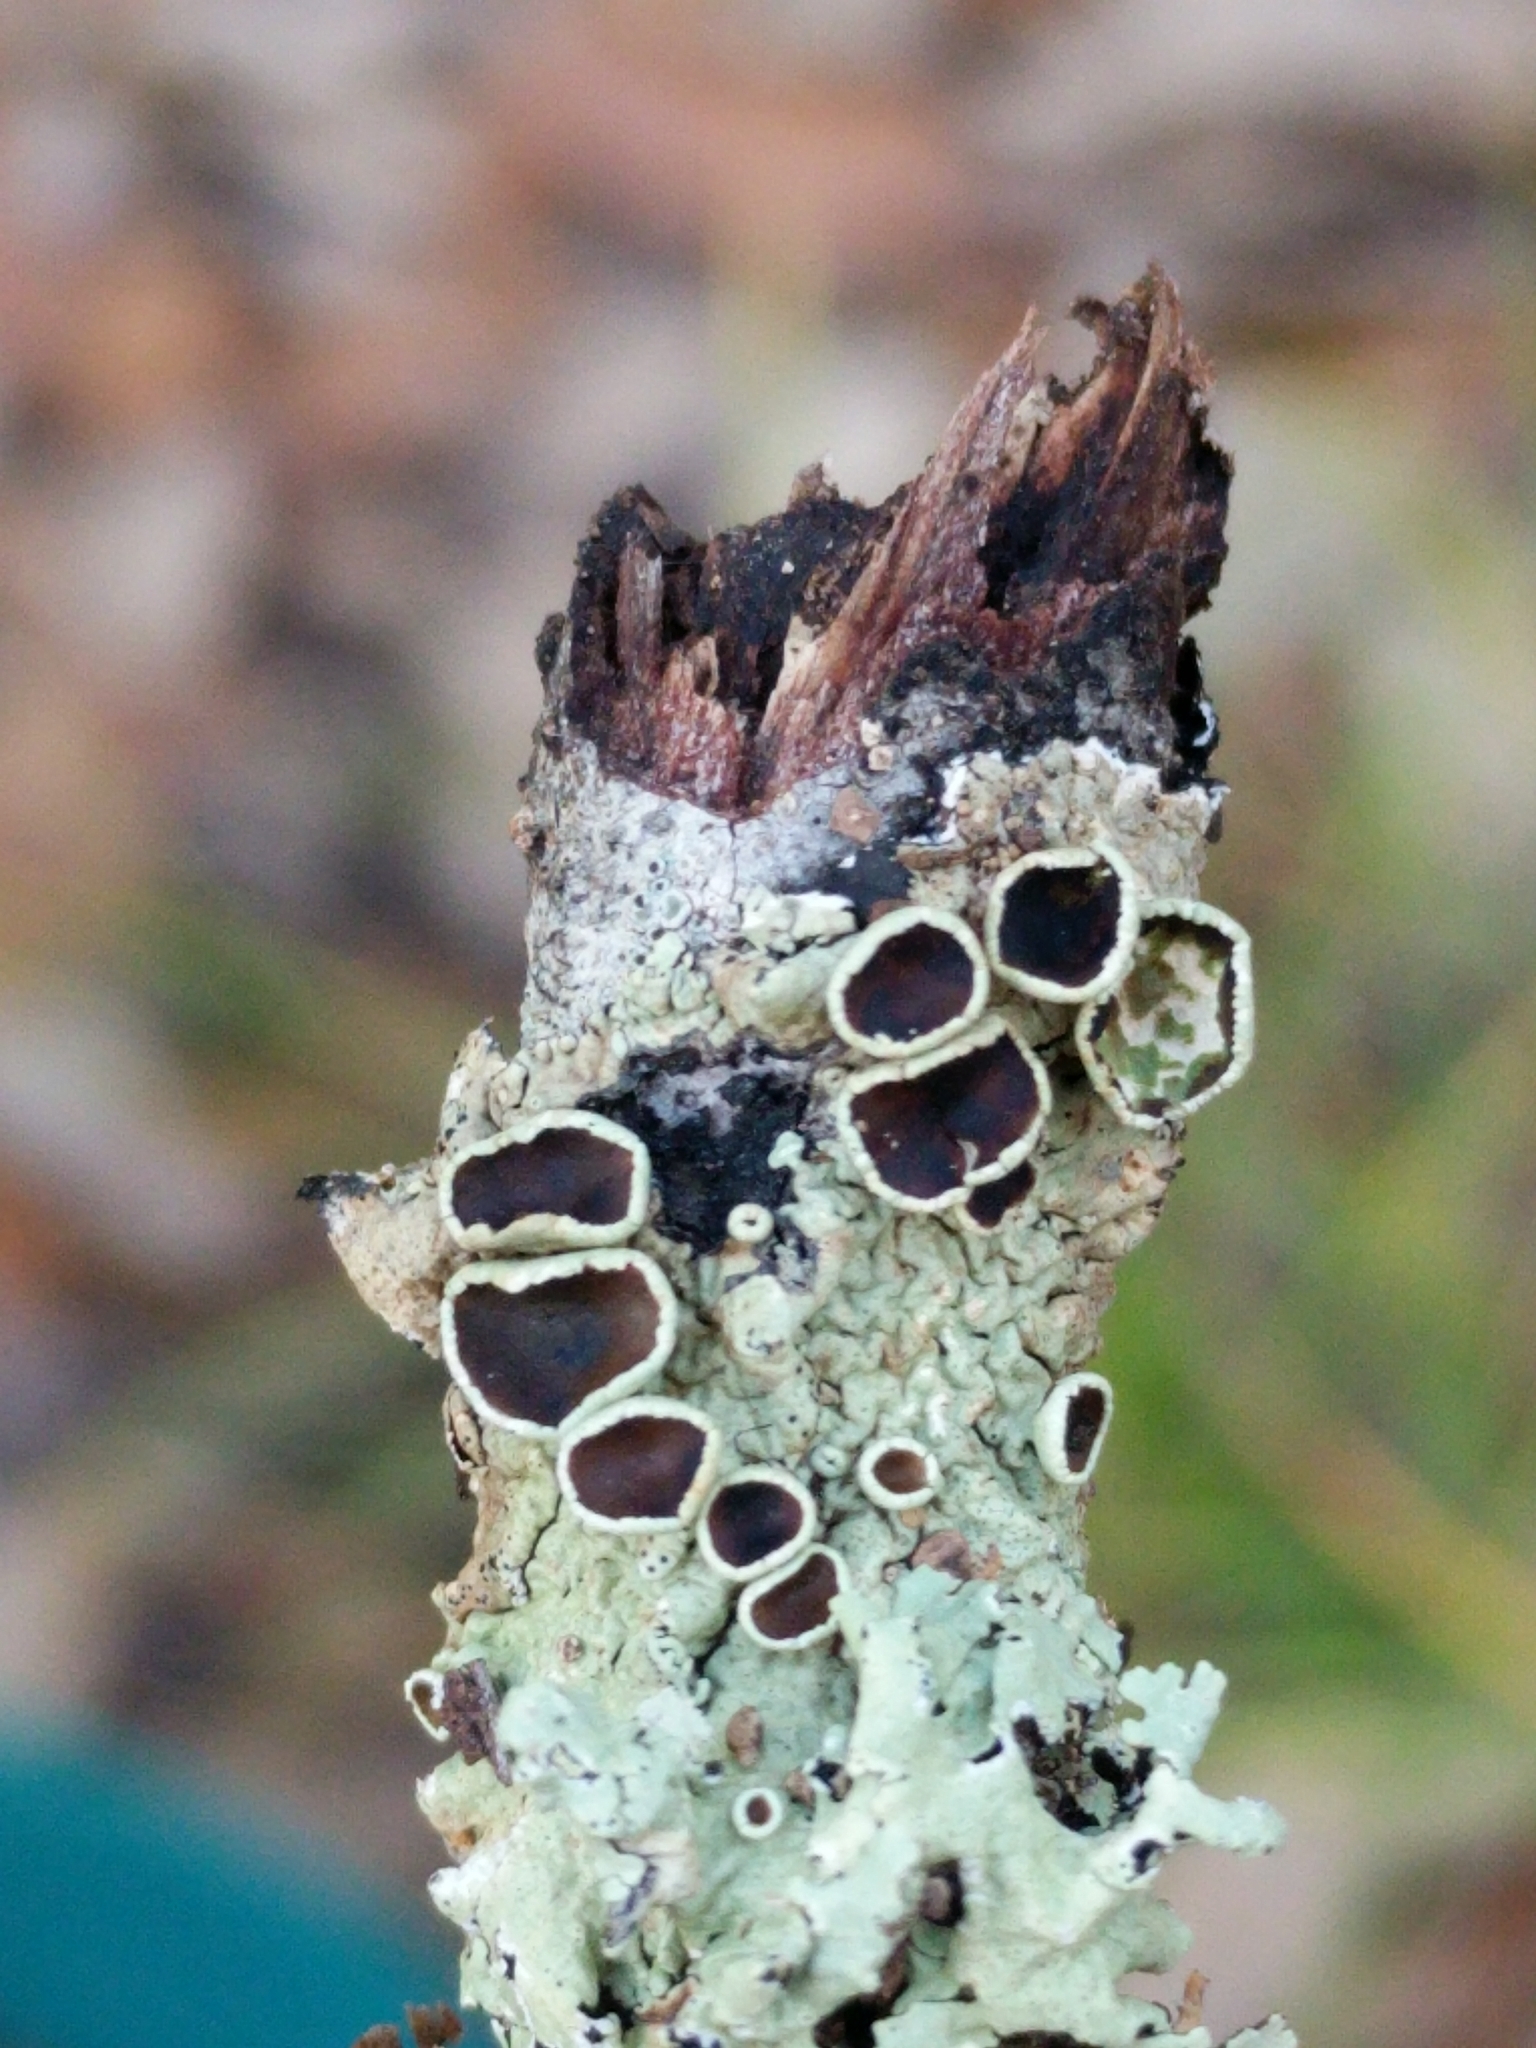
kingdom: Fungi
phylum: Ascomycota
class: Lecanoromycetes
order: Lecanorales
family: Parmeliaceae
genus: Flavoparmelia
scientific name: Flavoparmelia rutidota
